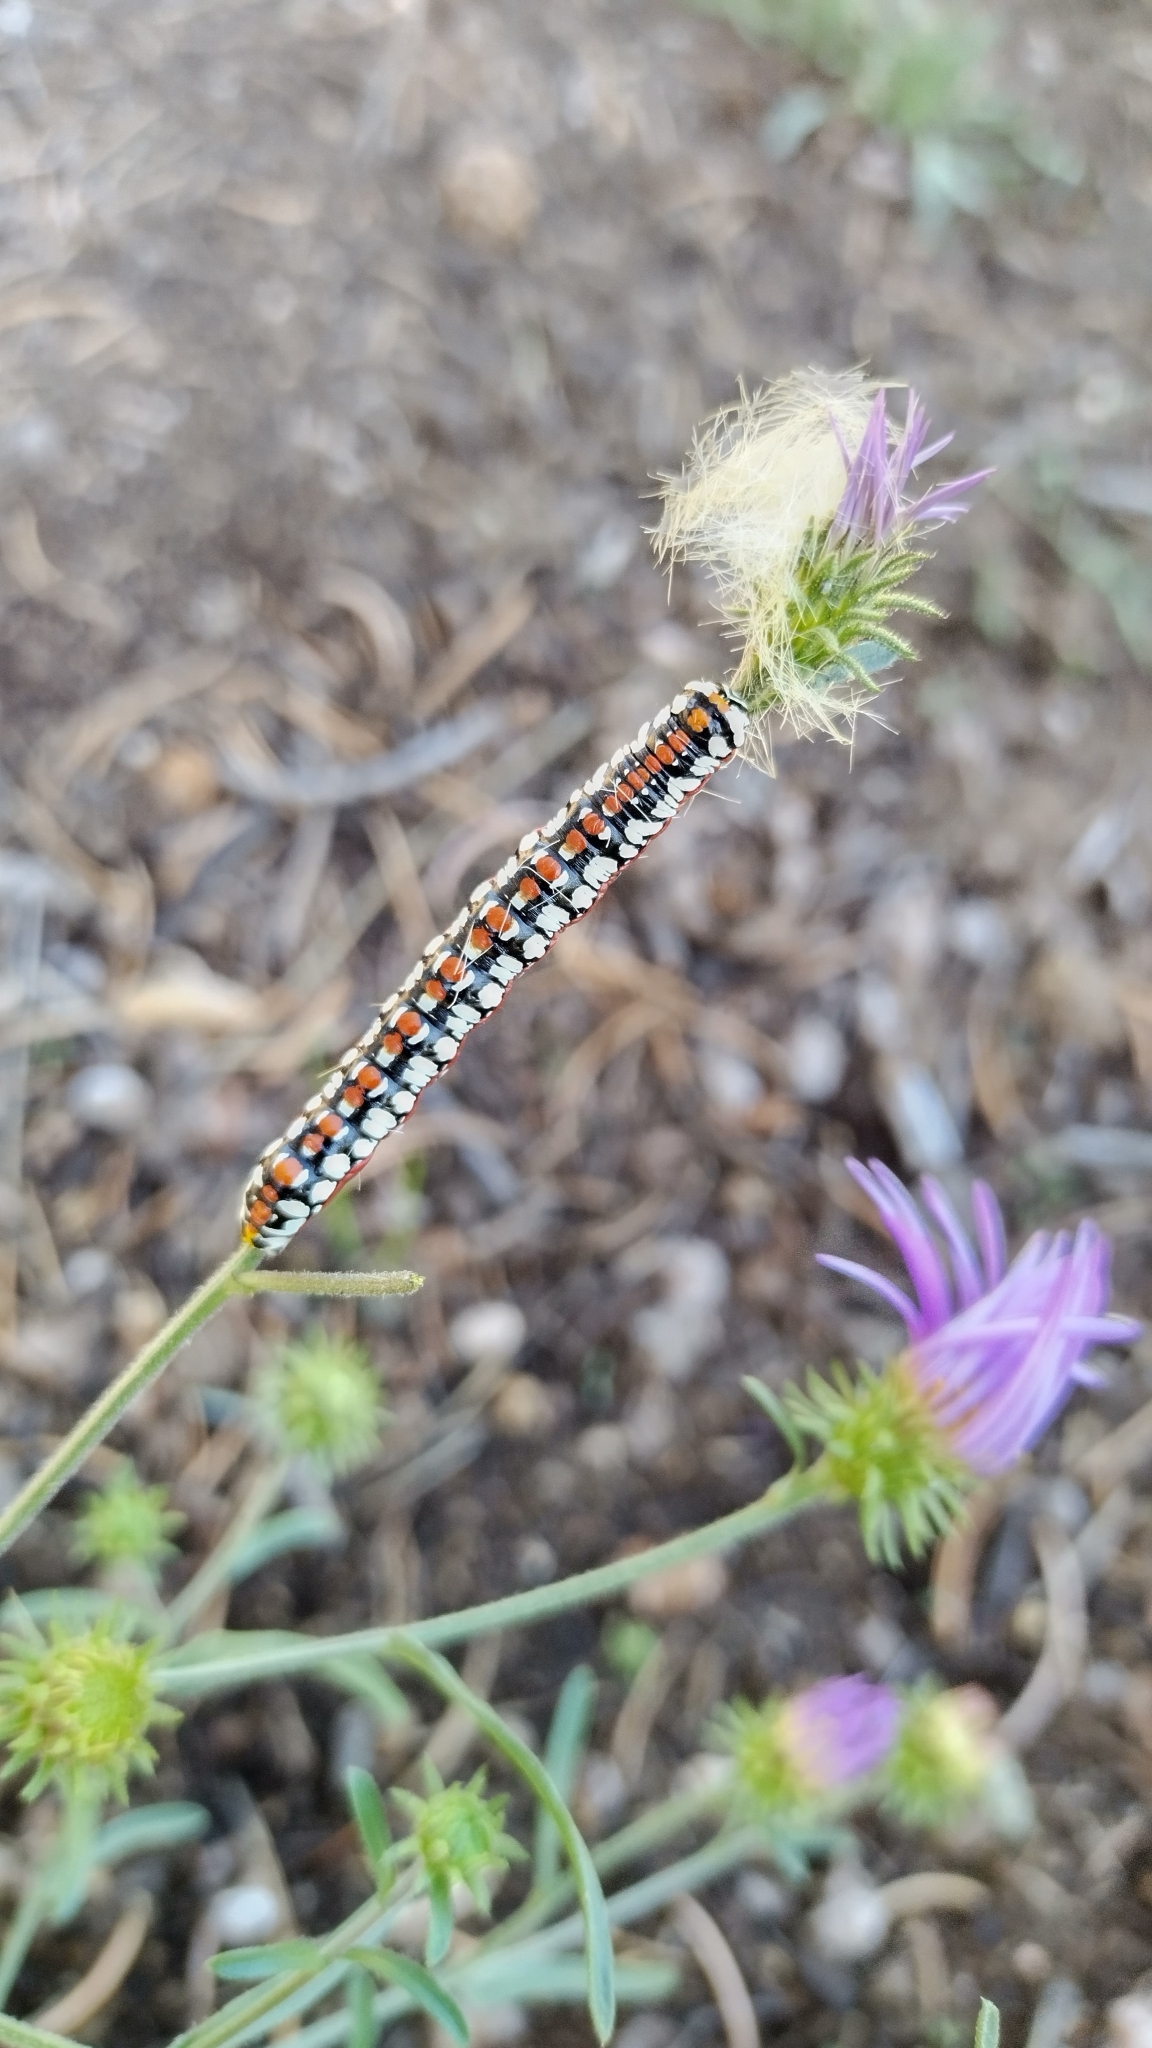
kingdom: Animalia
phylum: Arthropoda
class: Insecta
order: Lepidoptera
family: Noctuidae
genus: Cucullia
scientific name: Cucullia dorsalis
